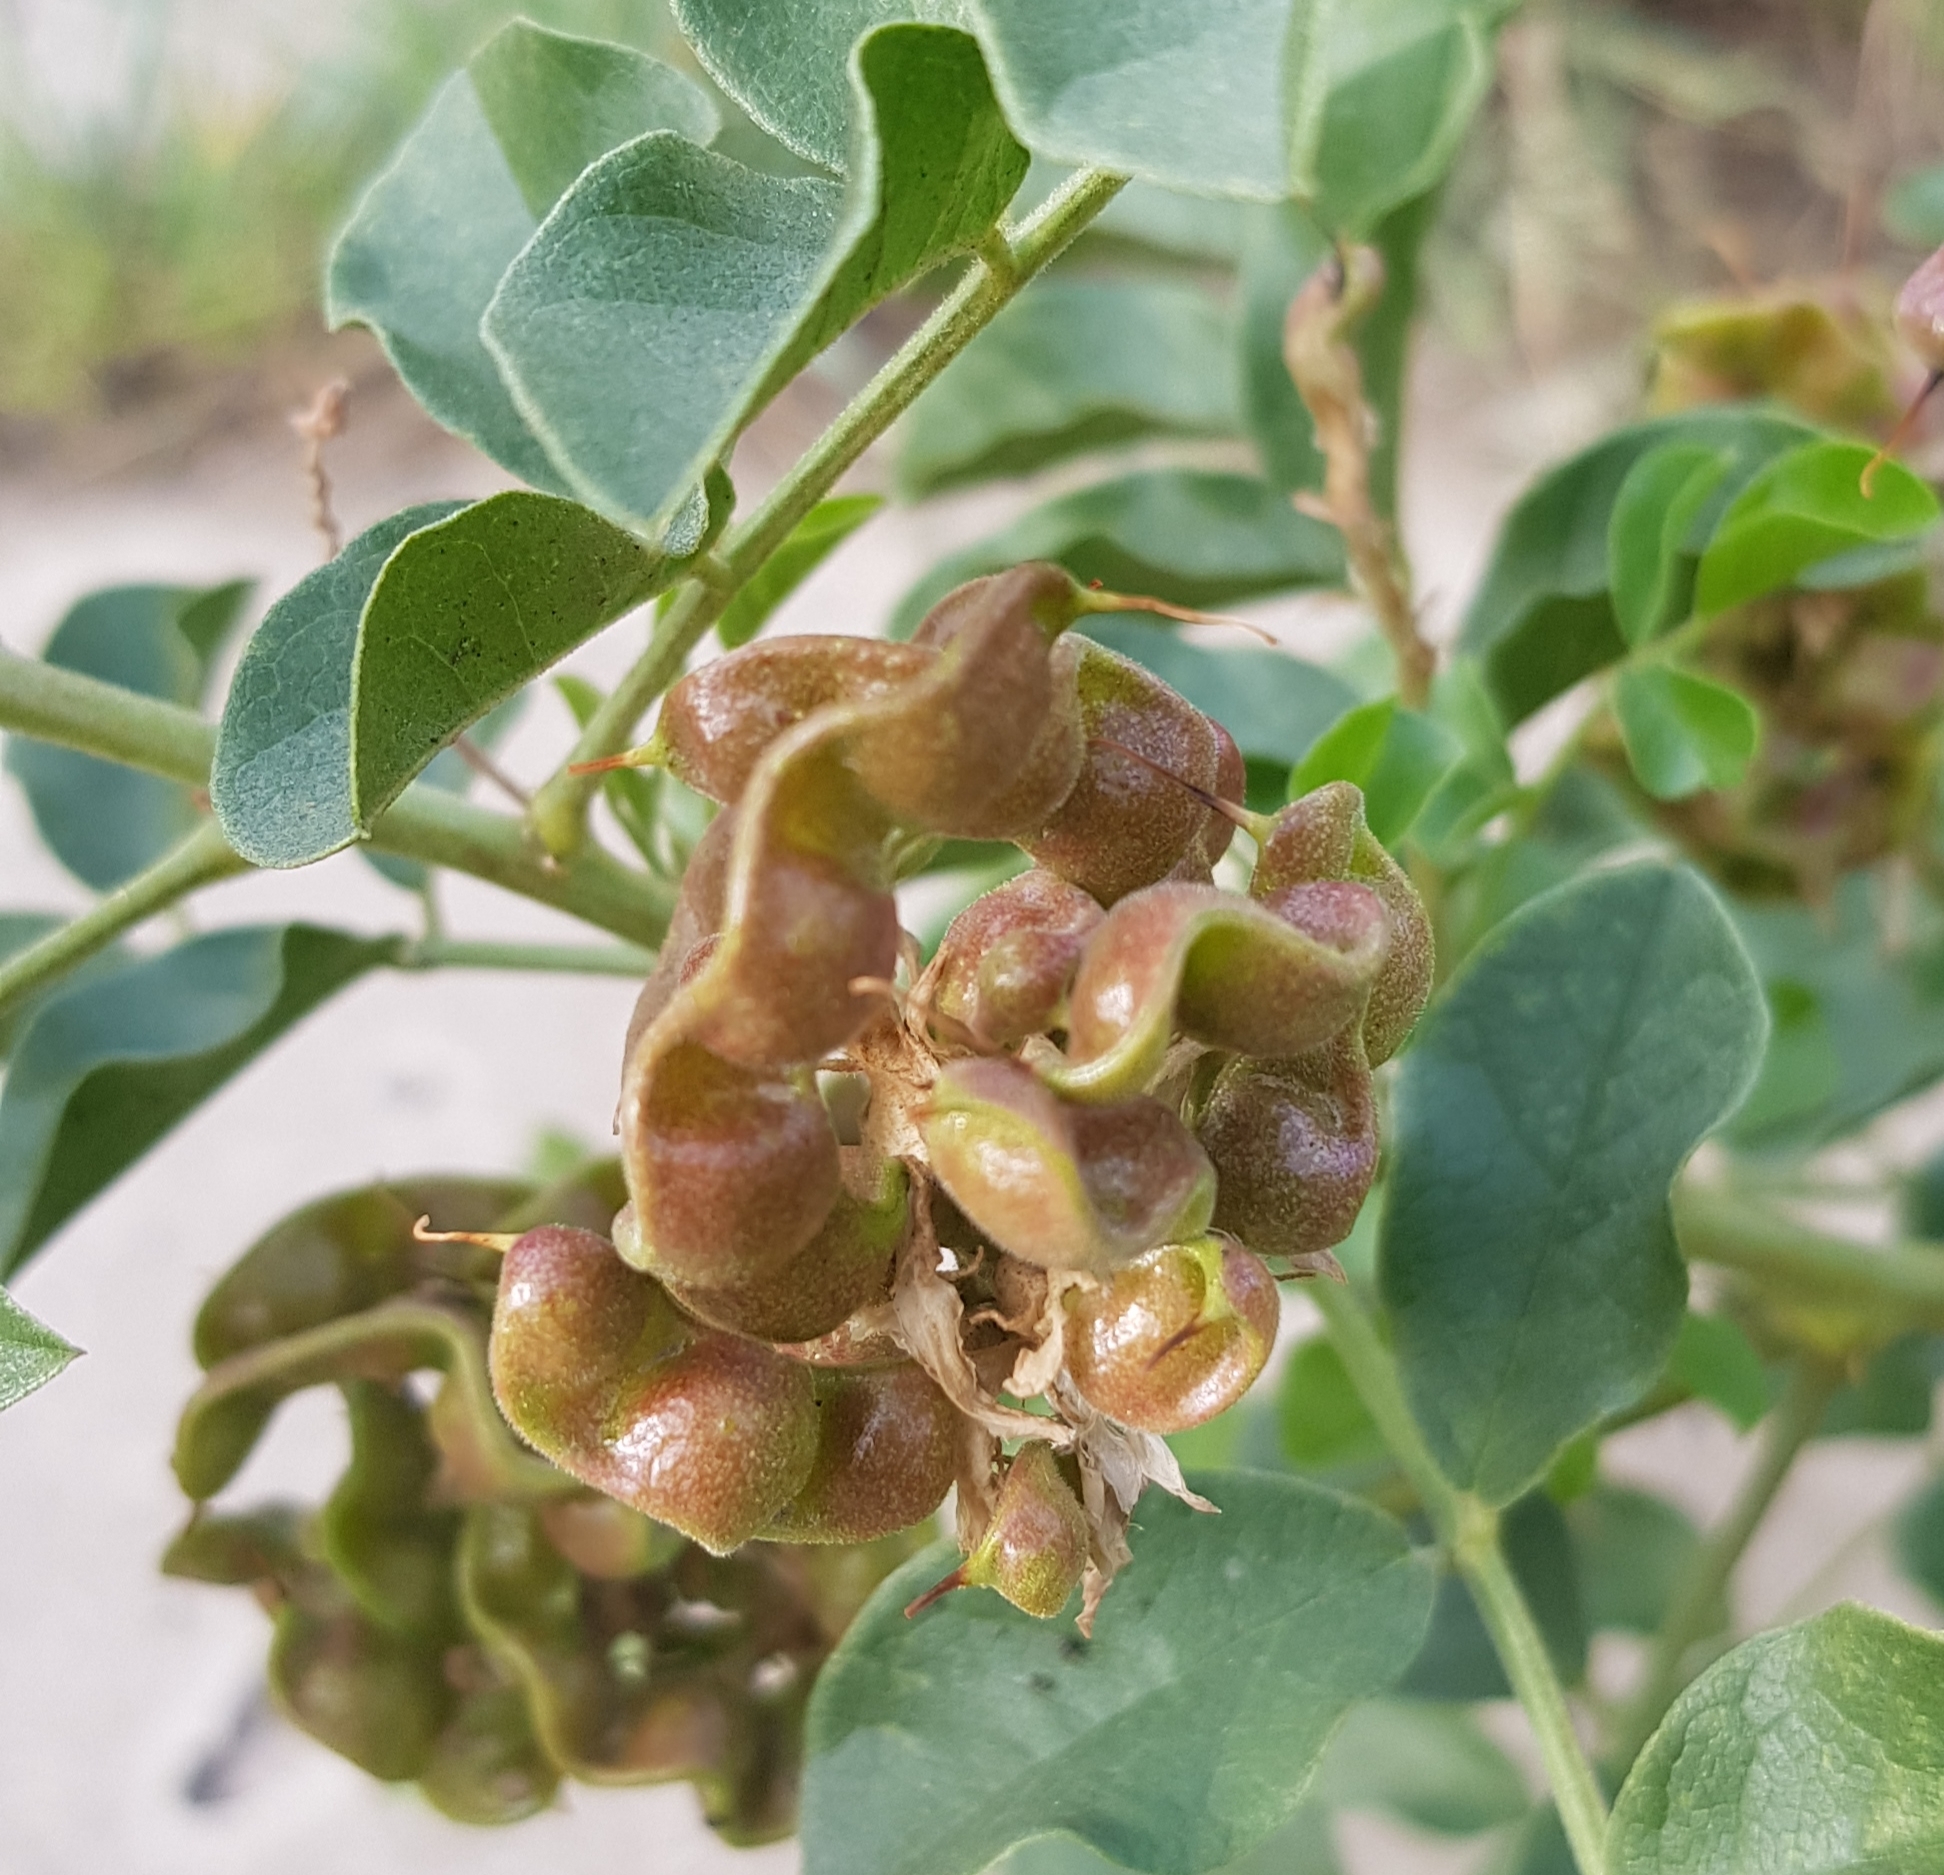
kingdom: Plantae
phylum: Tracheophyta
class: Magnoliopsida
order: Fabales
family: Fabaceae
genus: Glycyrrhiza
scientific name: Glycyrrhiza uralensis
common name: Chinese licorice
